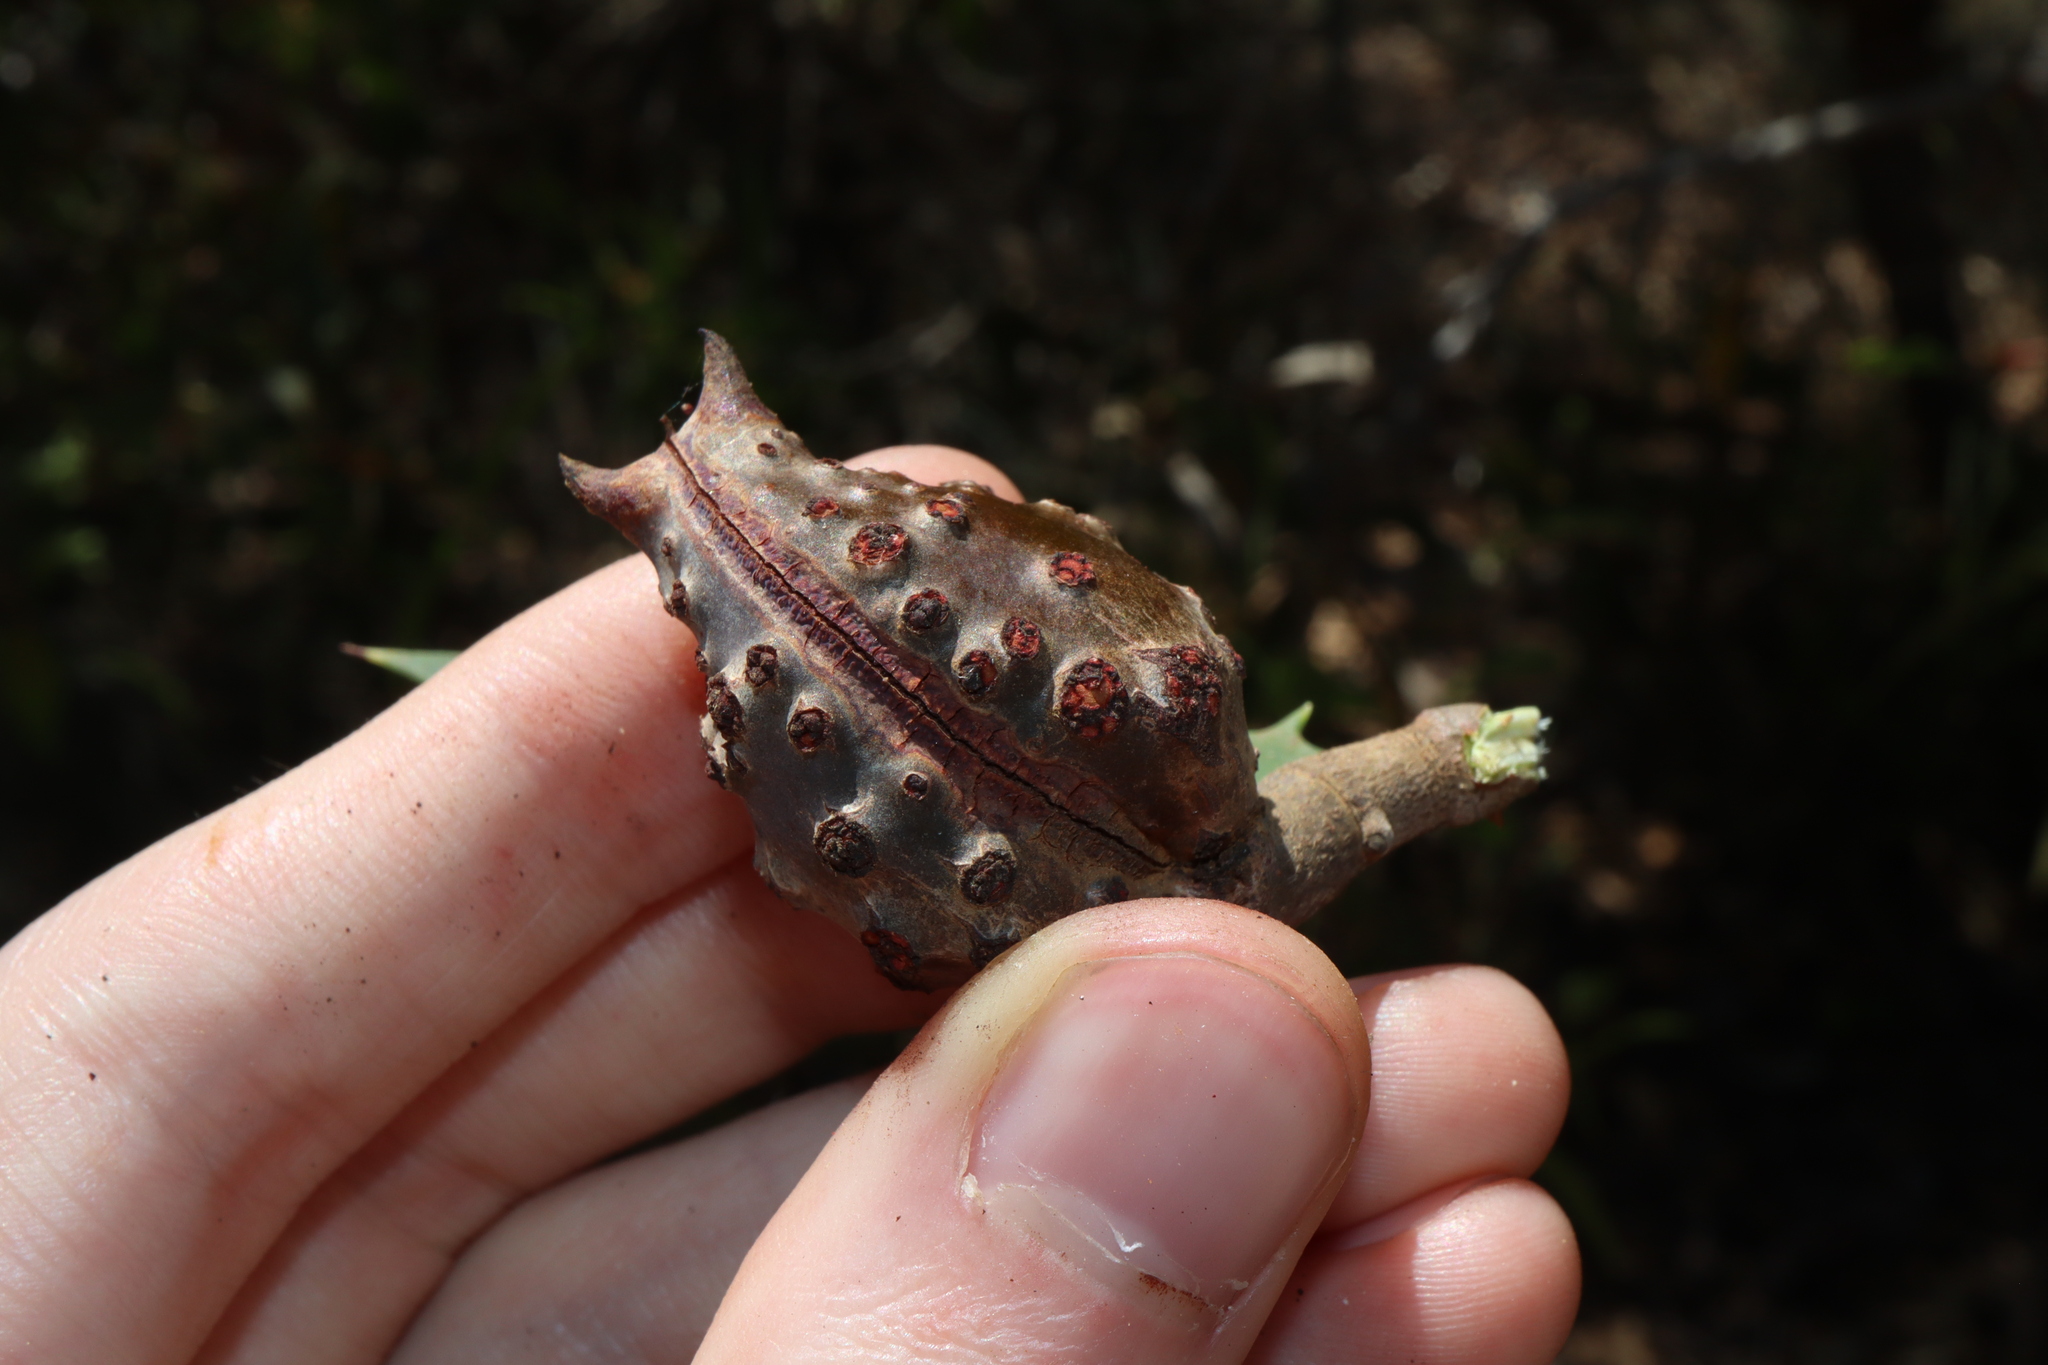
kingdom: Plantae
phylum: Tracheophyta
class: Magnoliopsida
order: Proteales
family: Proteaceae
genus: Hakea
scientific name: Hakea nitida
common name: Frog hakea
